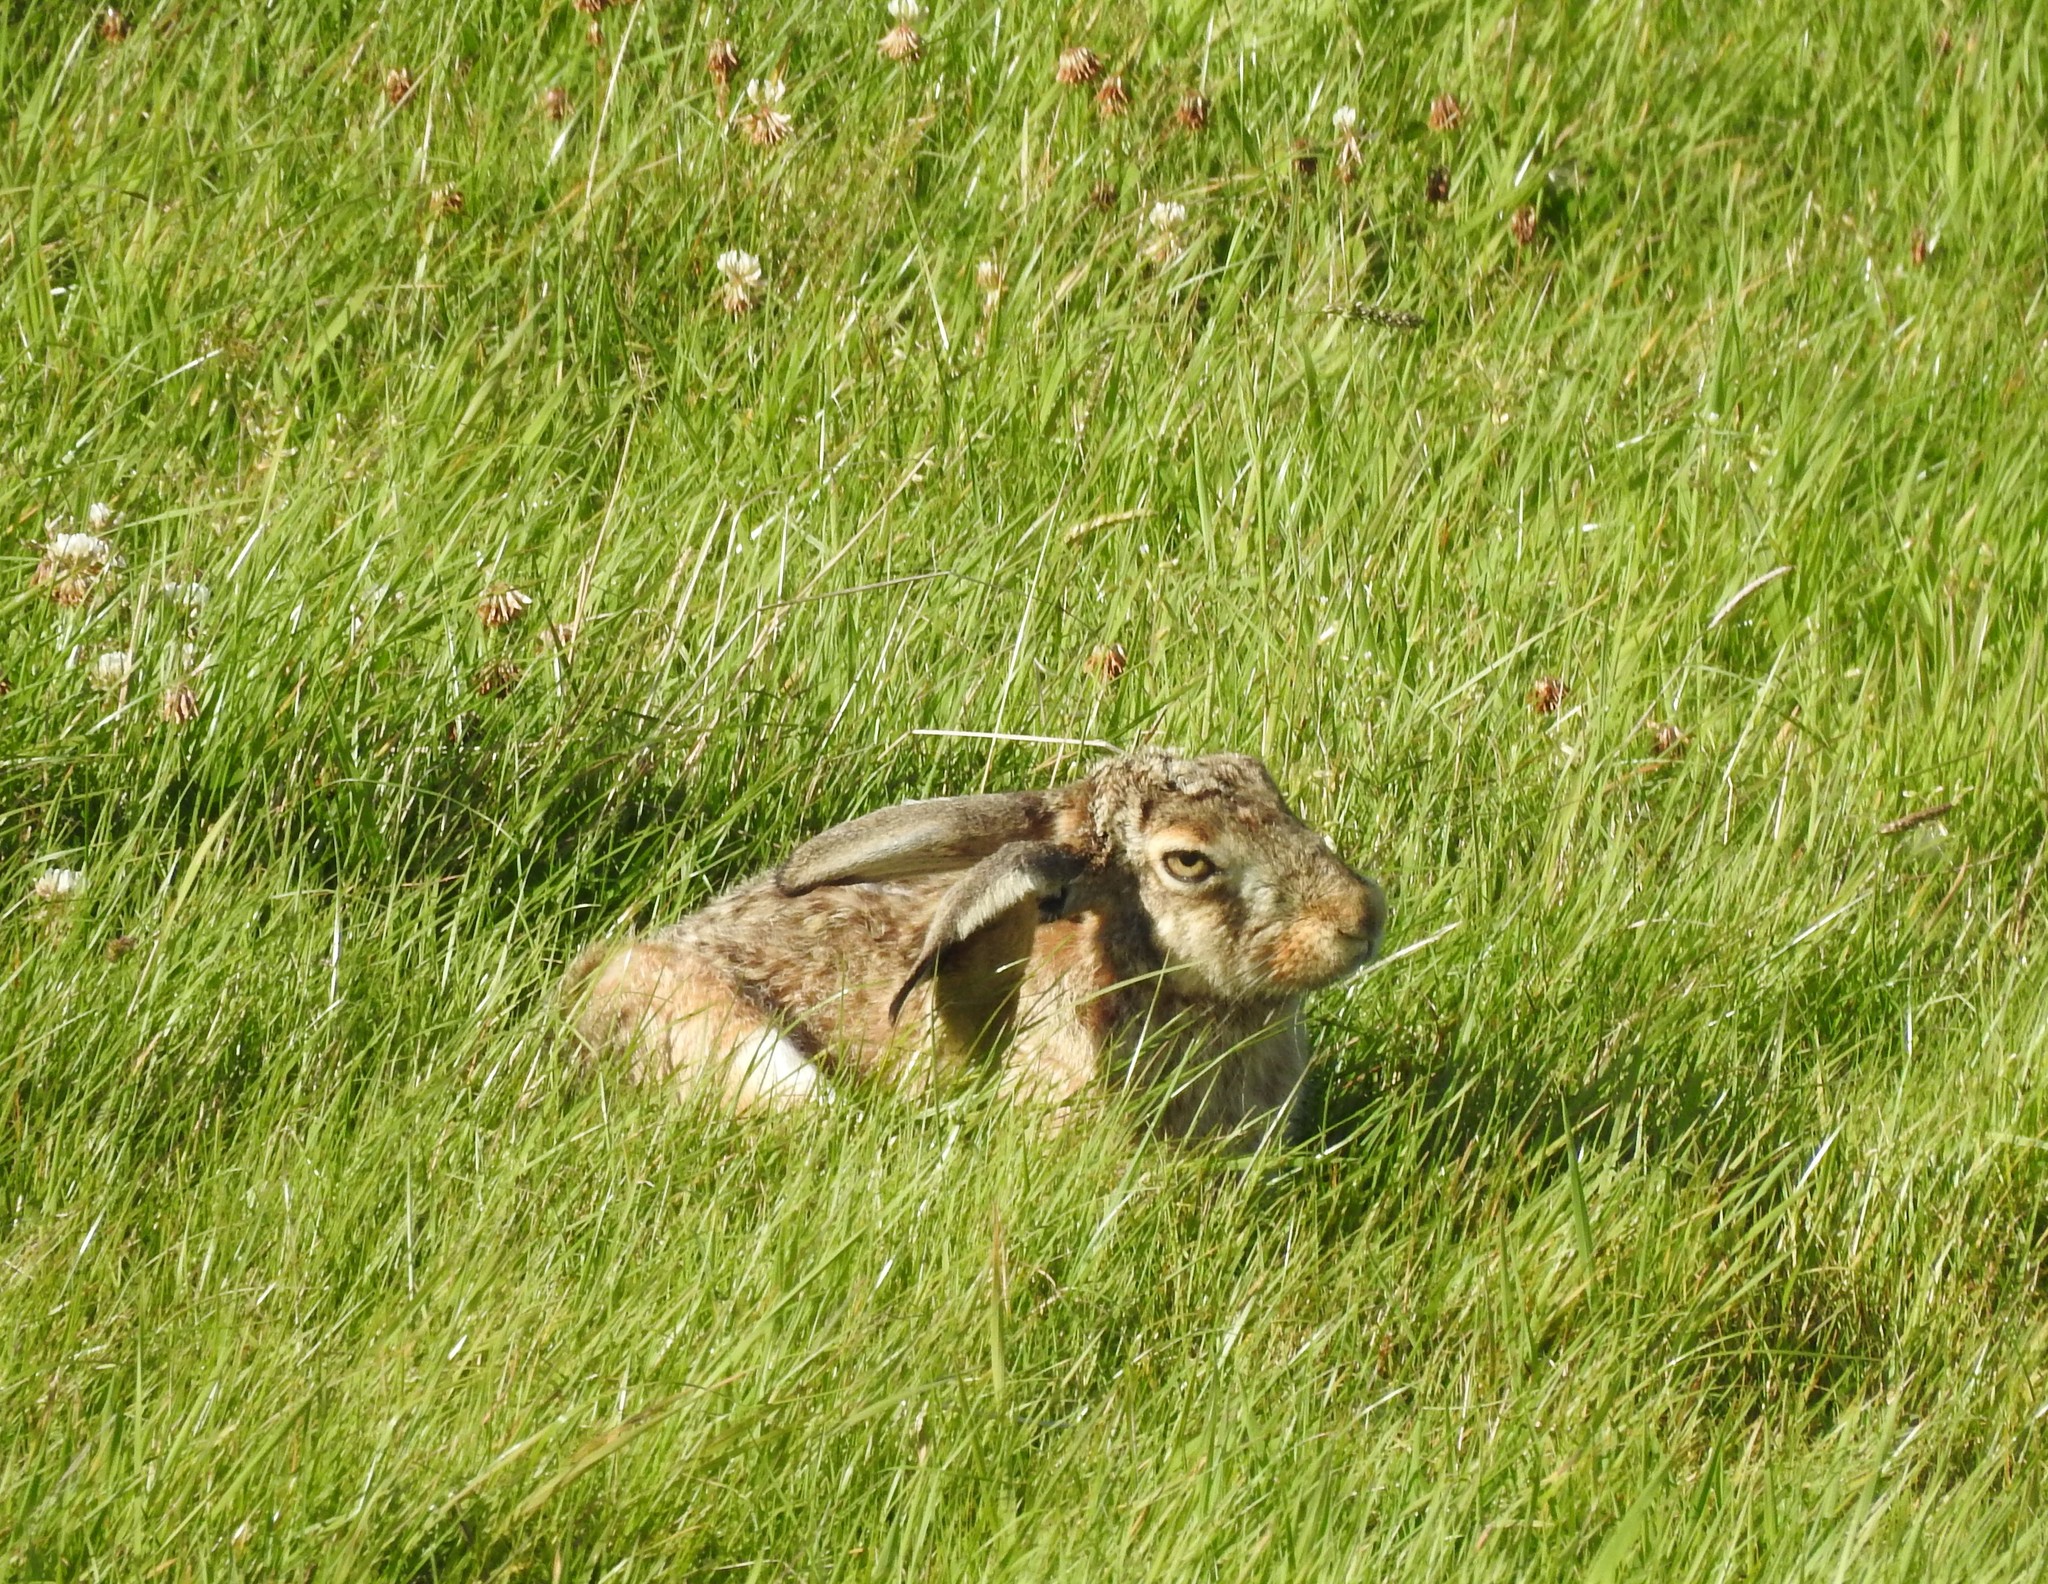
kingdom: Animalia
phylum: Chordata
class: Mammalia
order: Lagomorpha
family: Leporidae
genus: Lepus
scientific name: Lepus europaeus
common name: European hare
